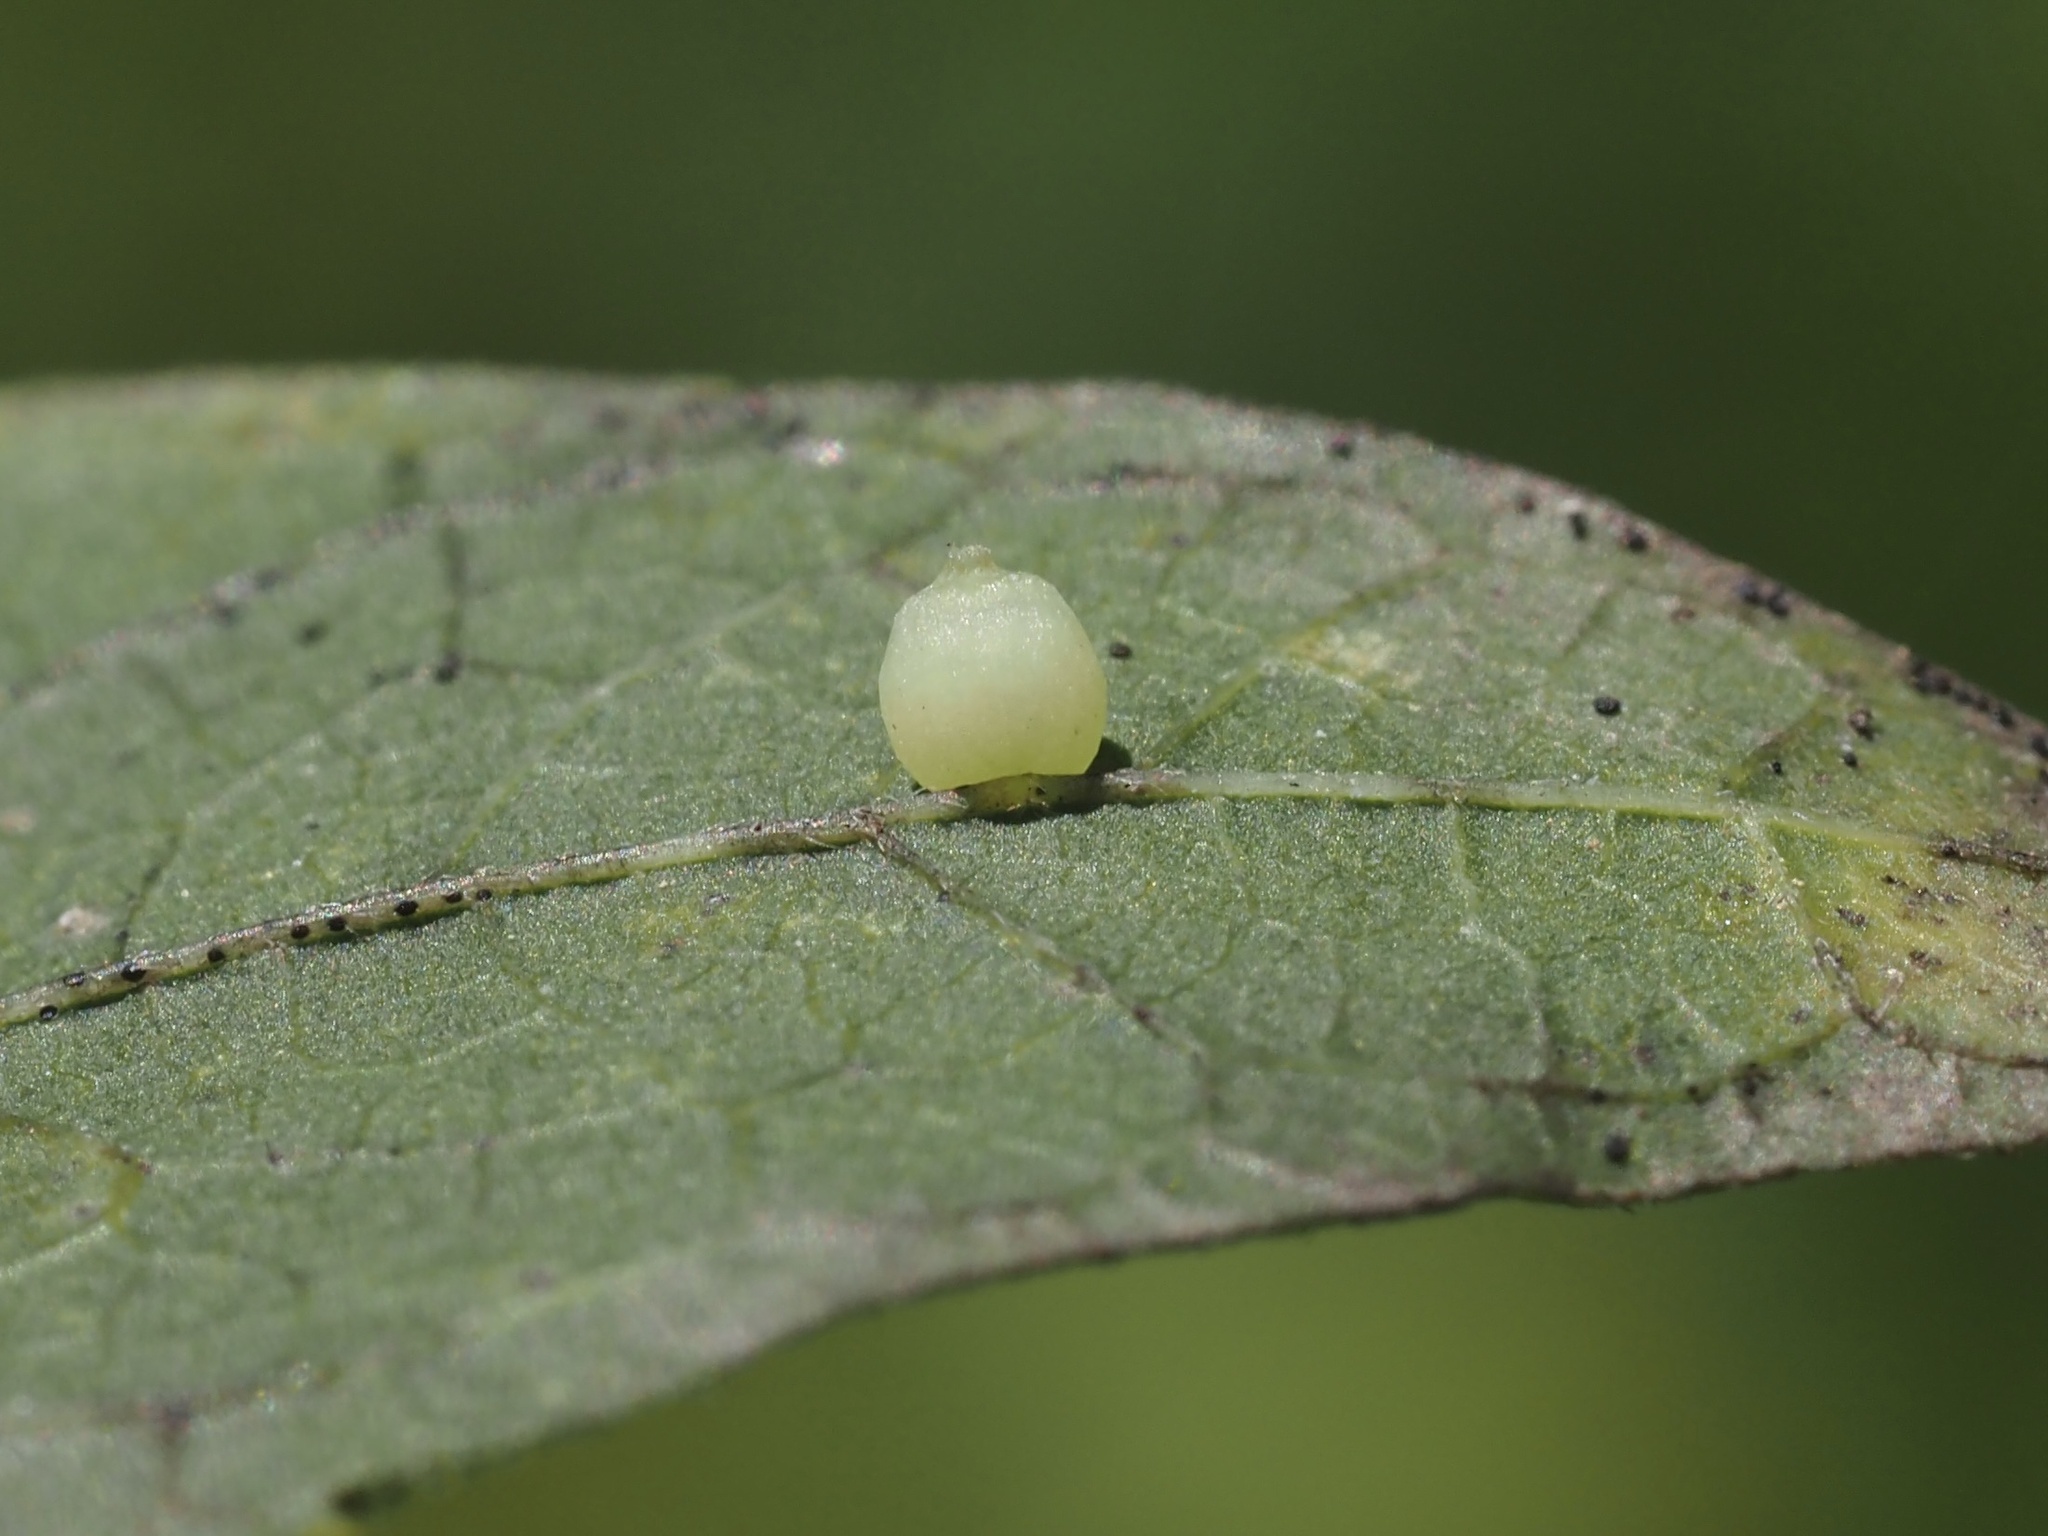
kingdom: Animalia
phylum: Arthropoda
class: Insecta
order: Diptera
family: Cecidomyiidae
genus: Celticecis
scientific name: Celticecis globosa
